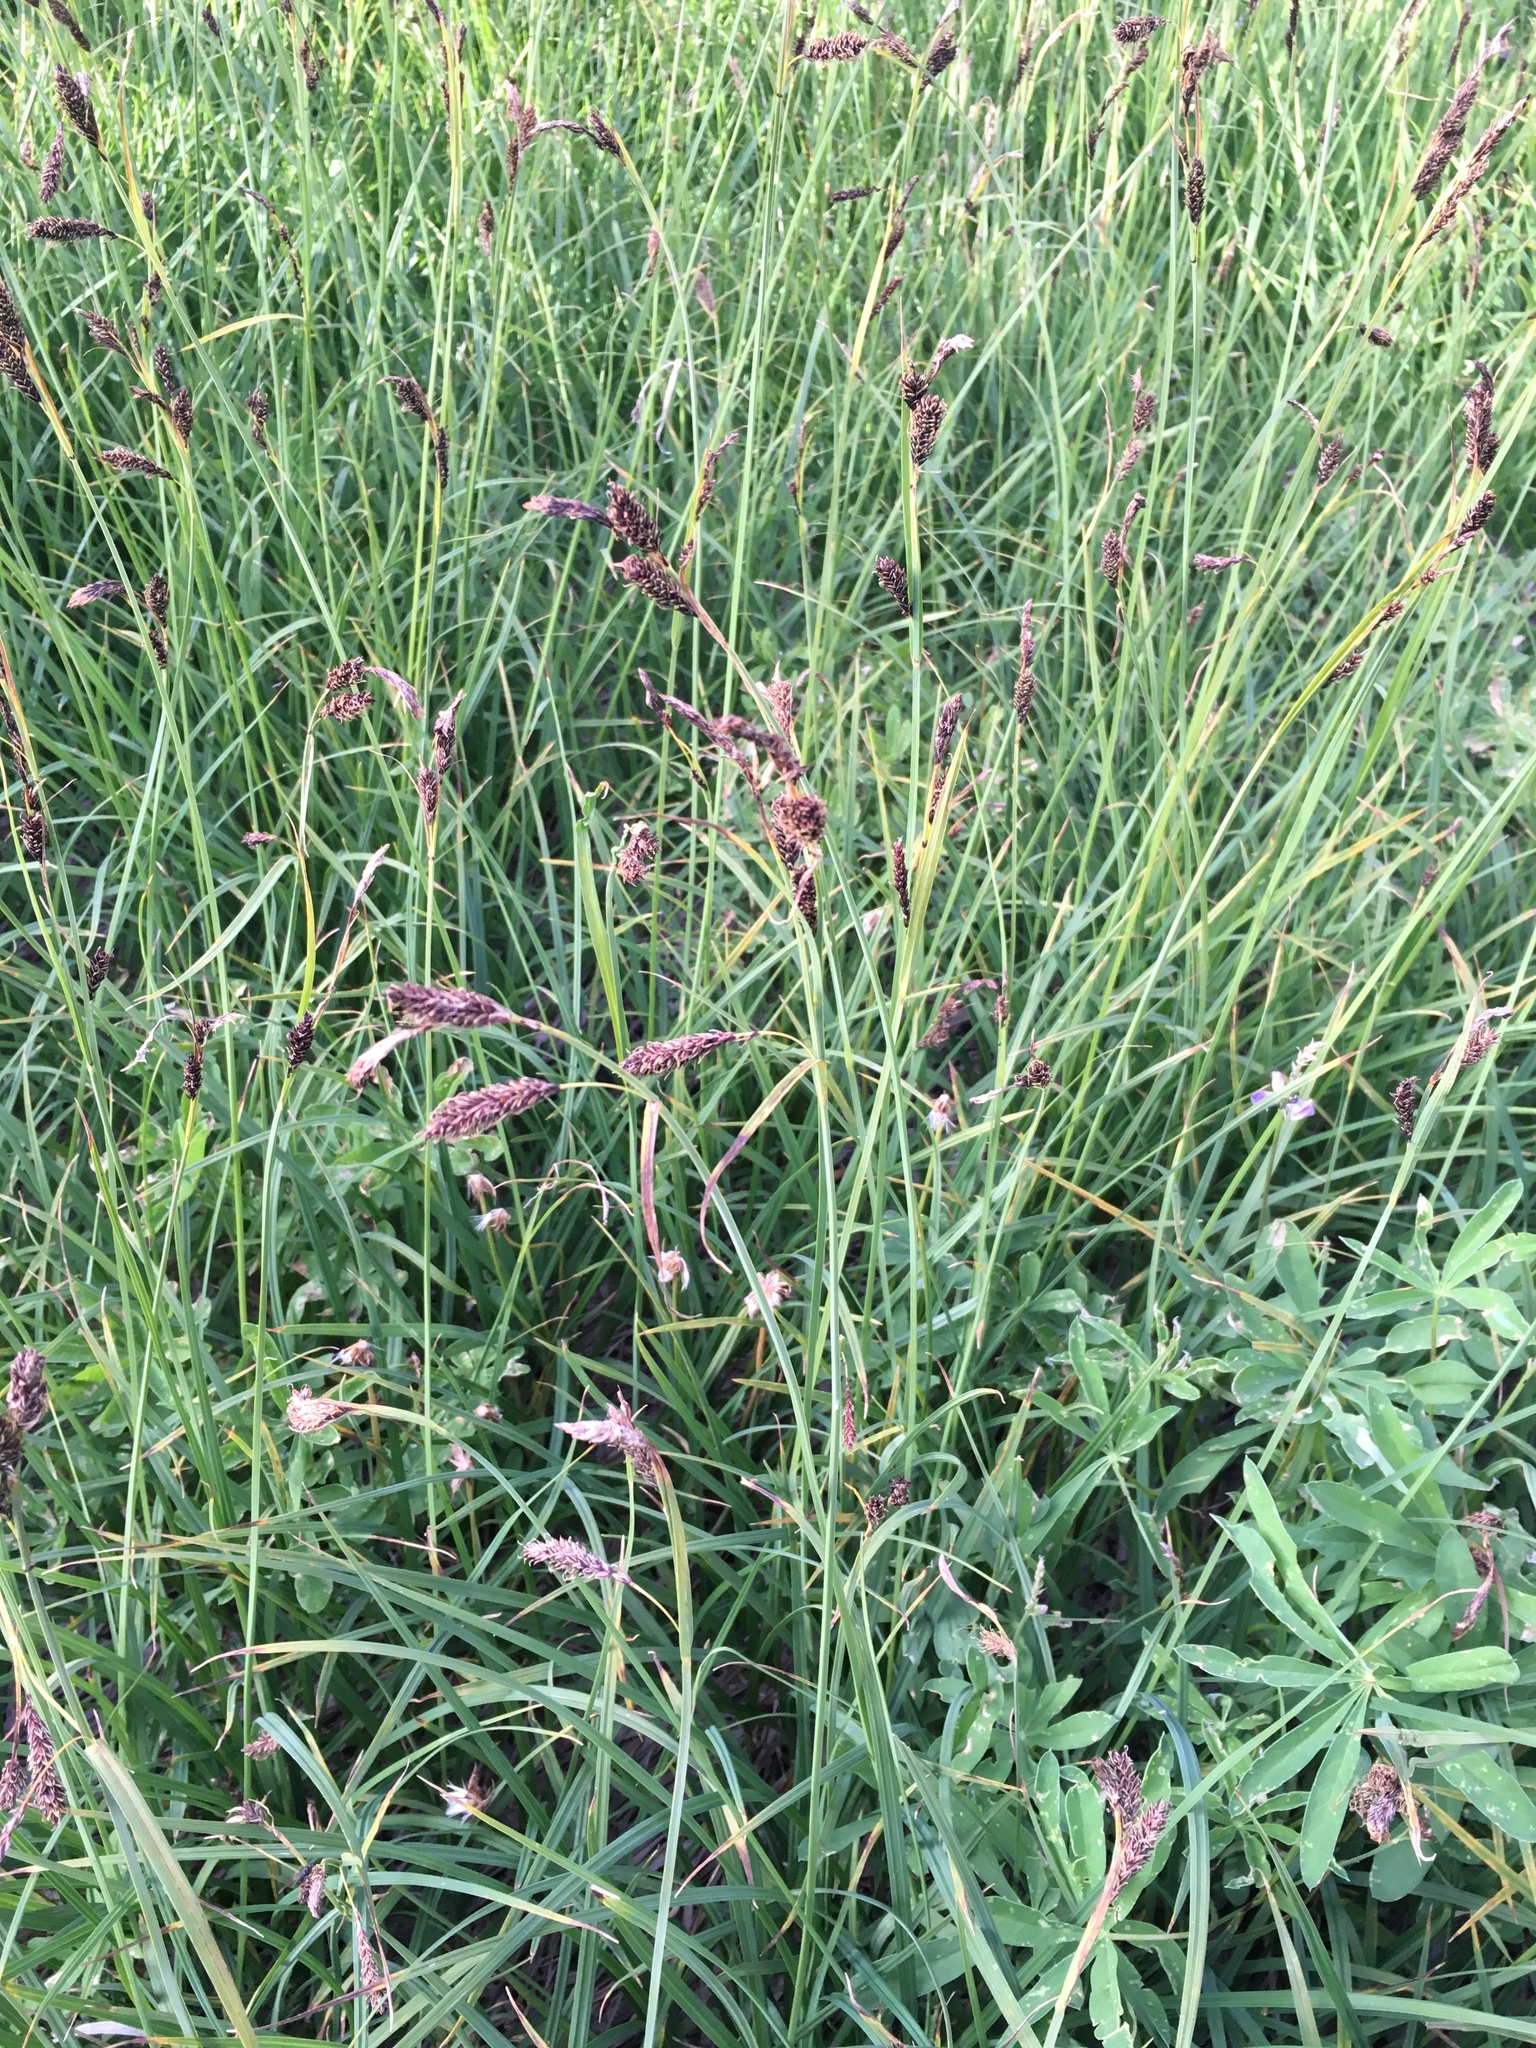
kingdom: Plantae
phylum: Tracheophyta
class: Liliopsida
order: Poales
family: Cyperaceae
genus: Carex
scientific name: Carex spectabilis
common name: Northwestern showy sedge
